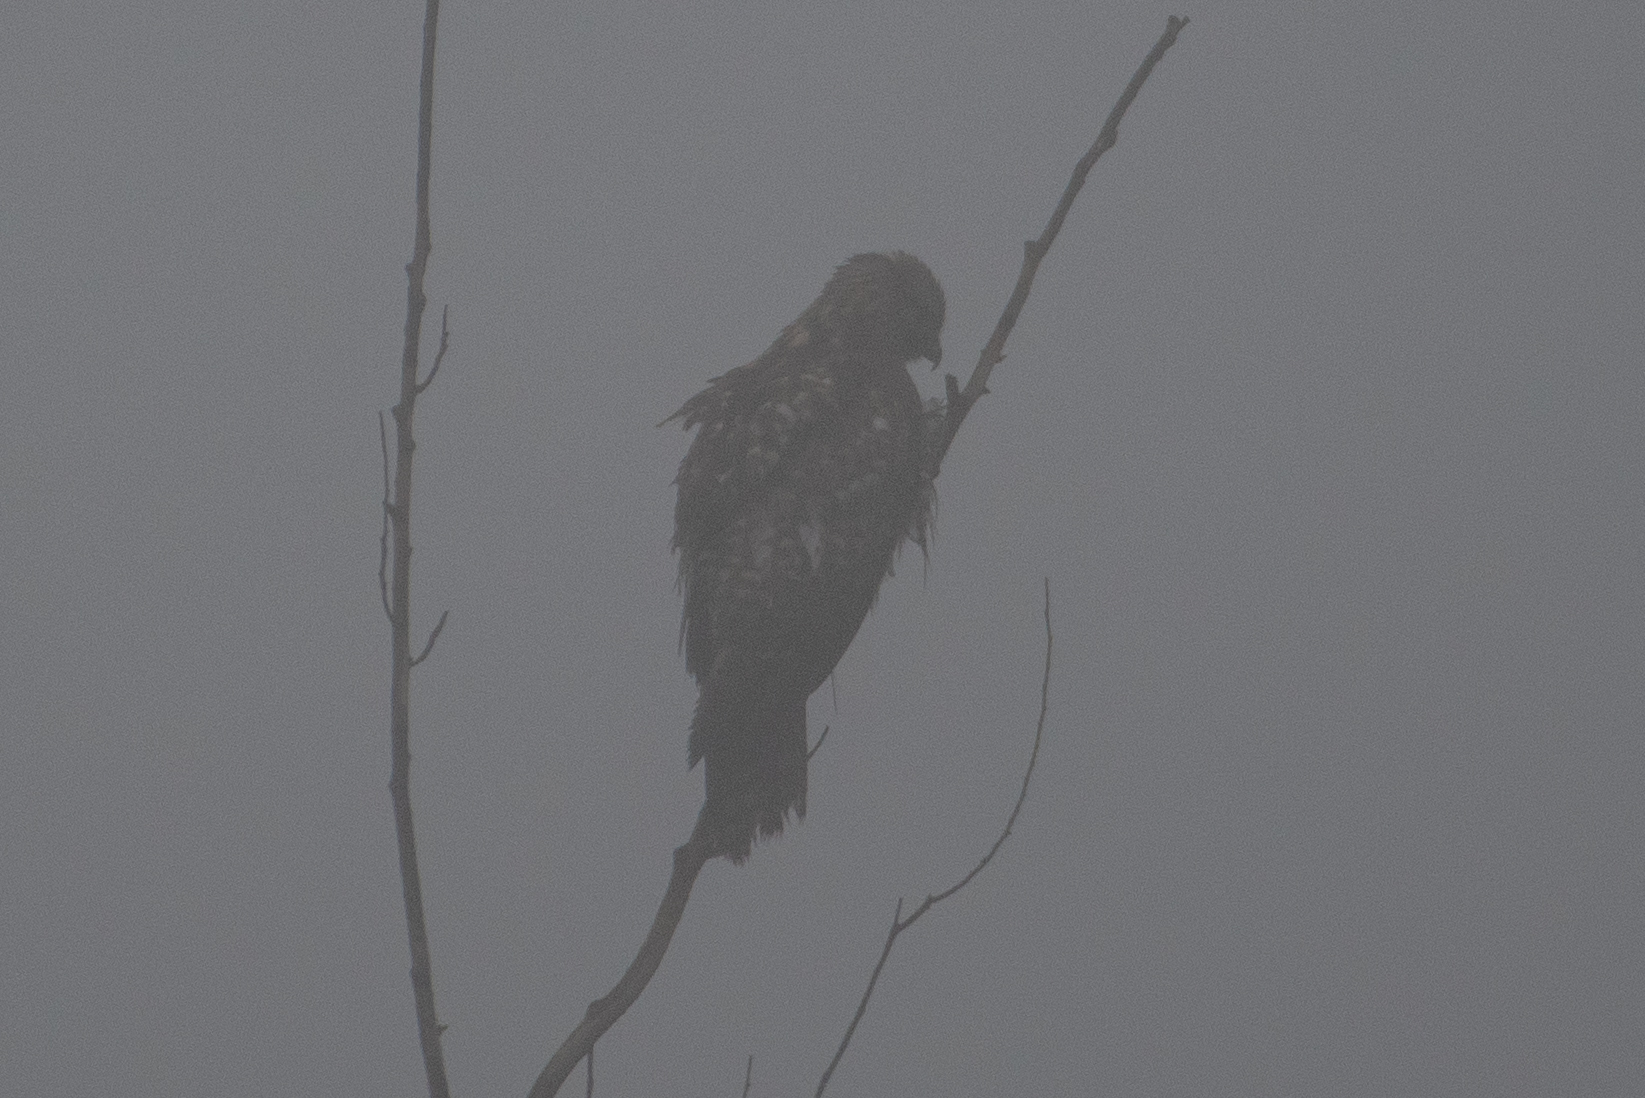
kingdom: Animalia
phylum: Chordata
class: Aves
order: Accipitriformes
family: Accipitridae
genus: Buteo
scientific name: Buteo jamaicensis
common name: Red-tailed hawk
